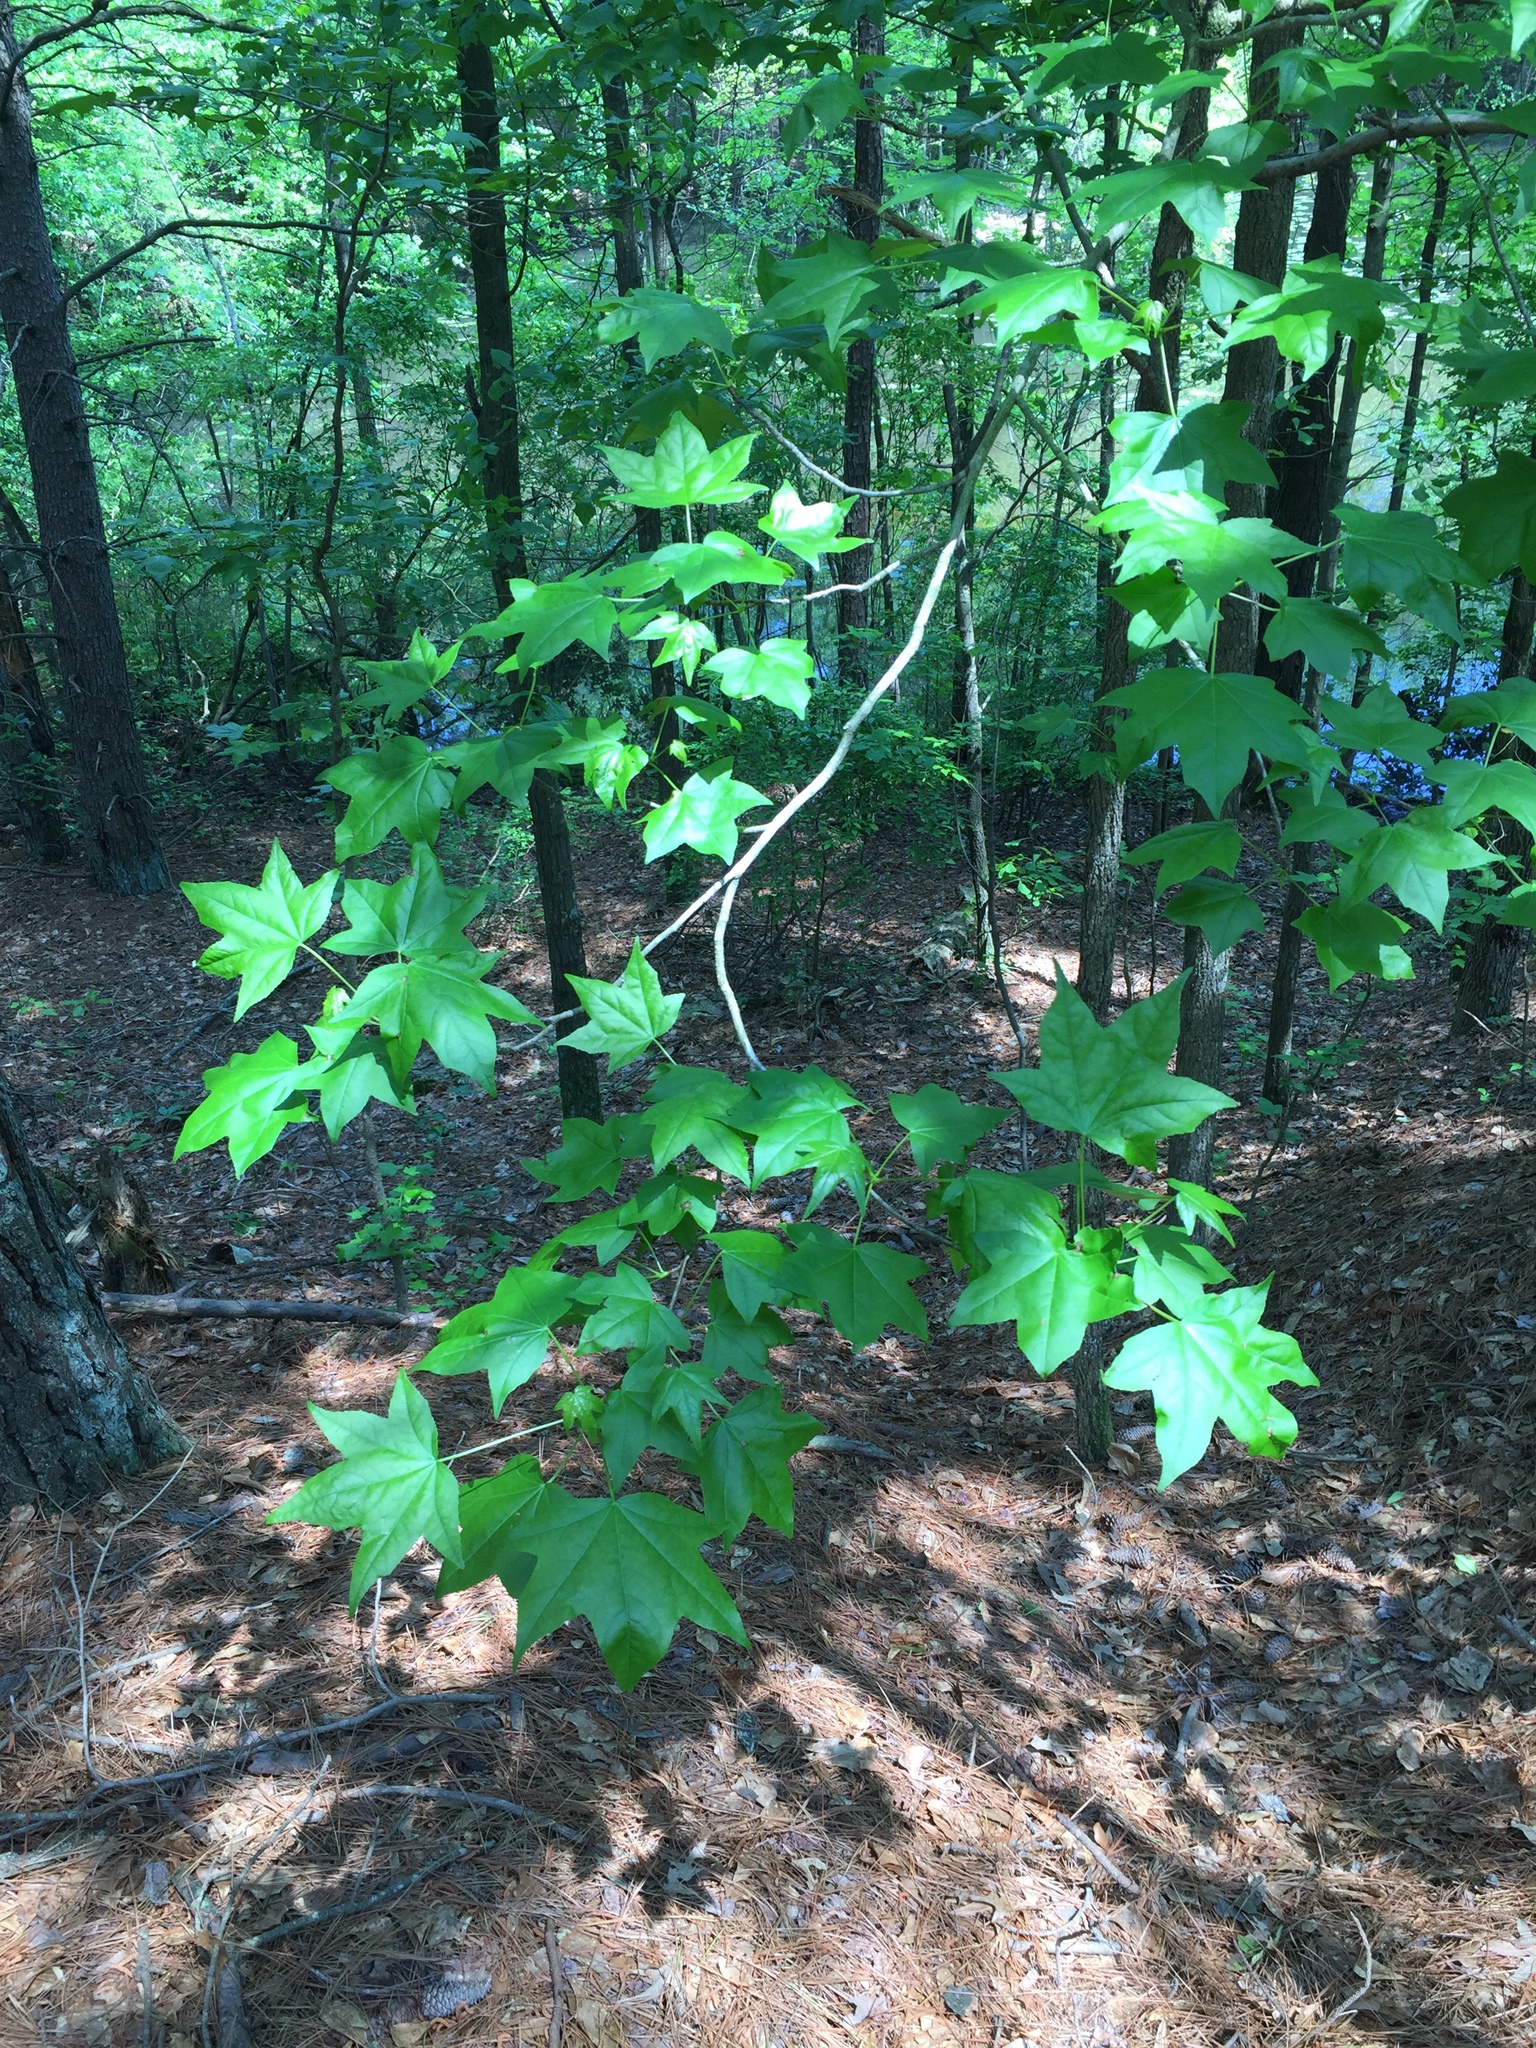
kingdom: Plantae
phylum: Tracheophyta
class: Magnoliopsida
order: Saxifragales
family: Altingiaceae
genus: Liquidambar
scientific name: Liquidambar styraciflua
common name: Sweet gum
